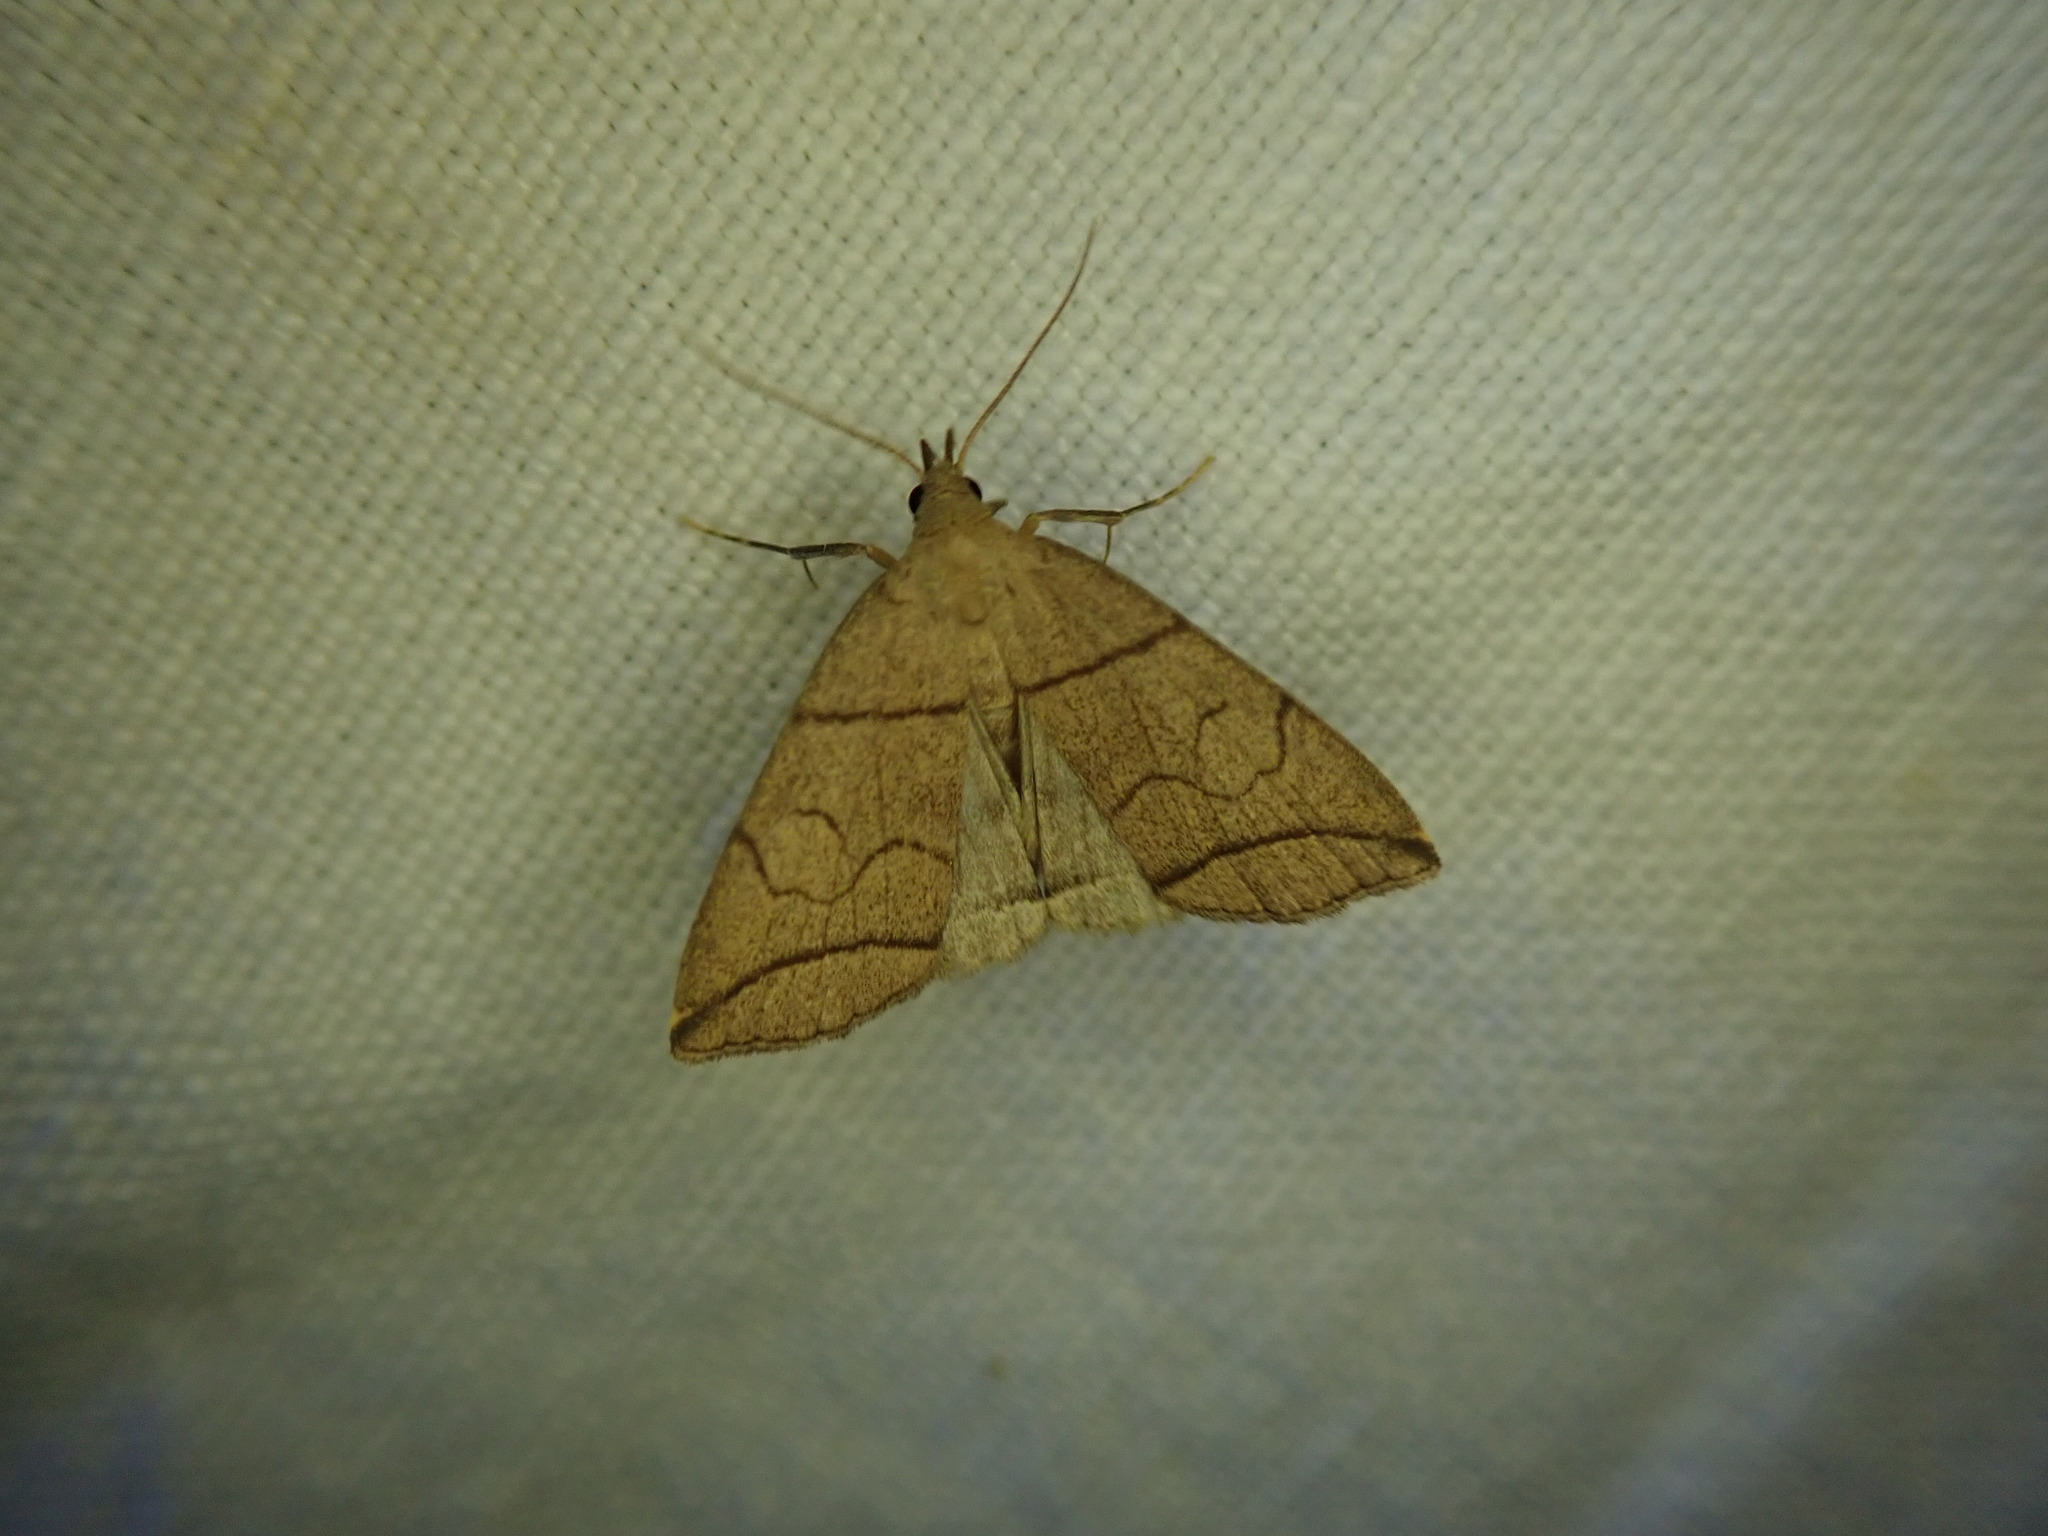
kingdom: Animalia
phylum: Arthropoda
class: Insecta
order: Lepidoptera
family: Erebidae
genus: Herminia
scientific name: Herminia grisealis
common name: Small fan-foot
